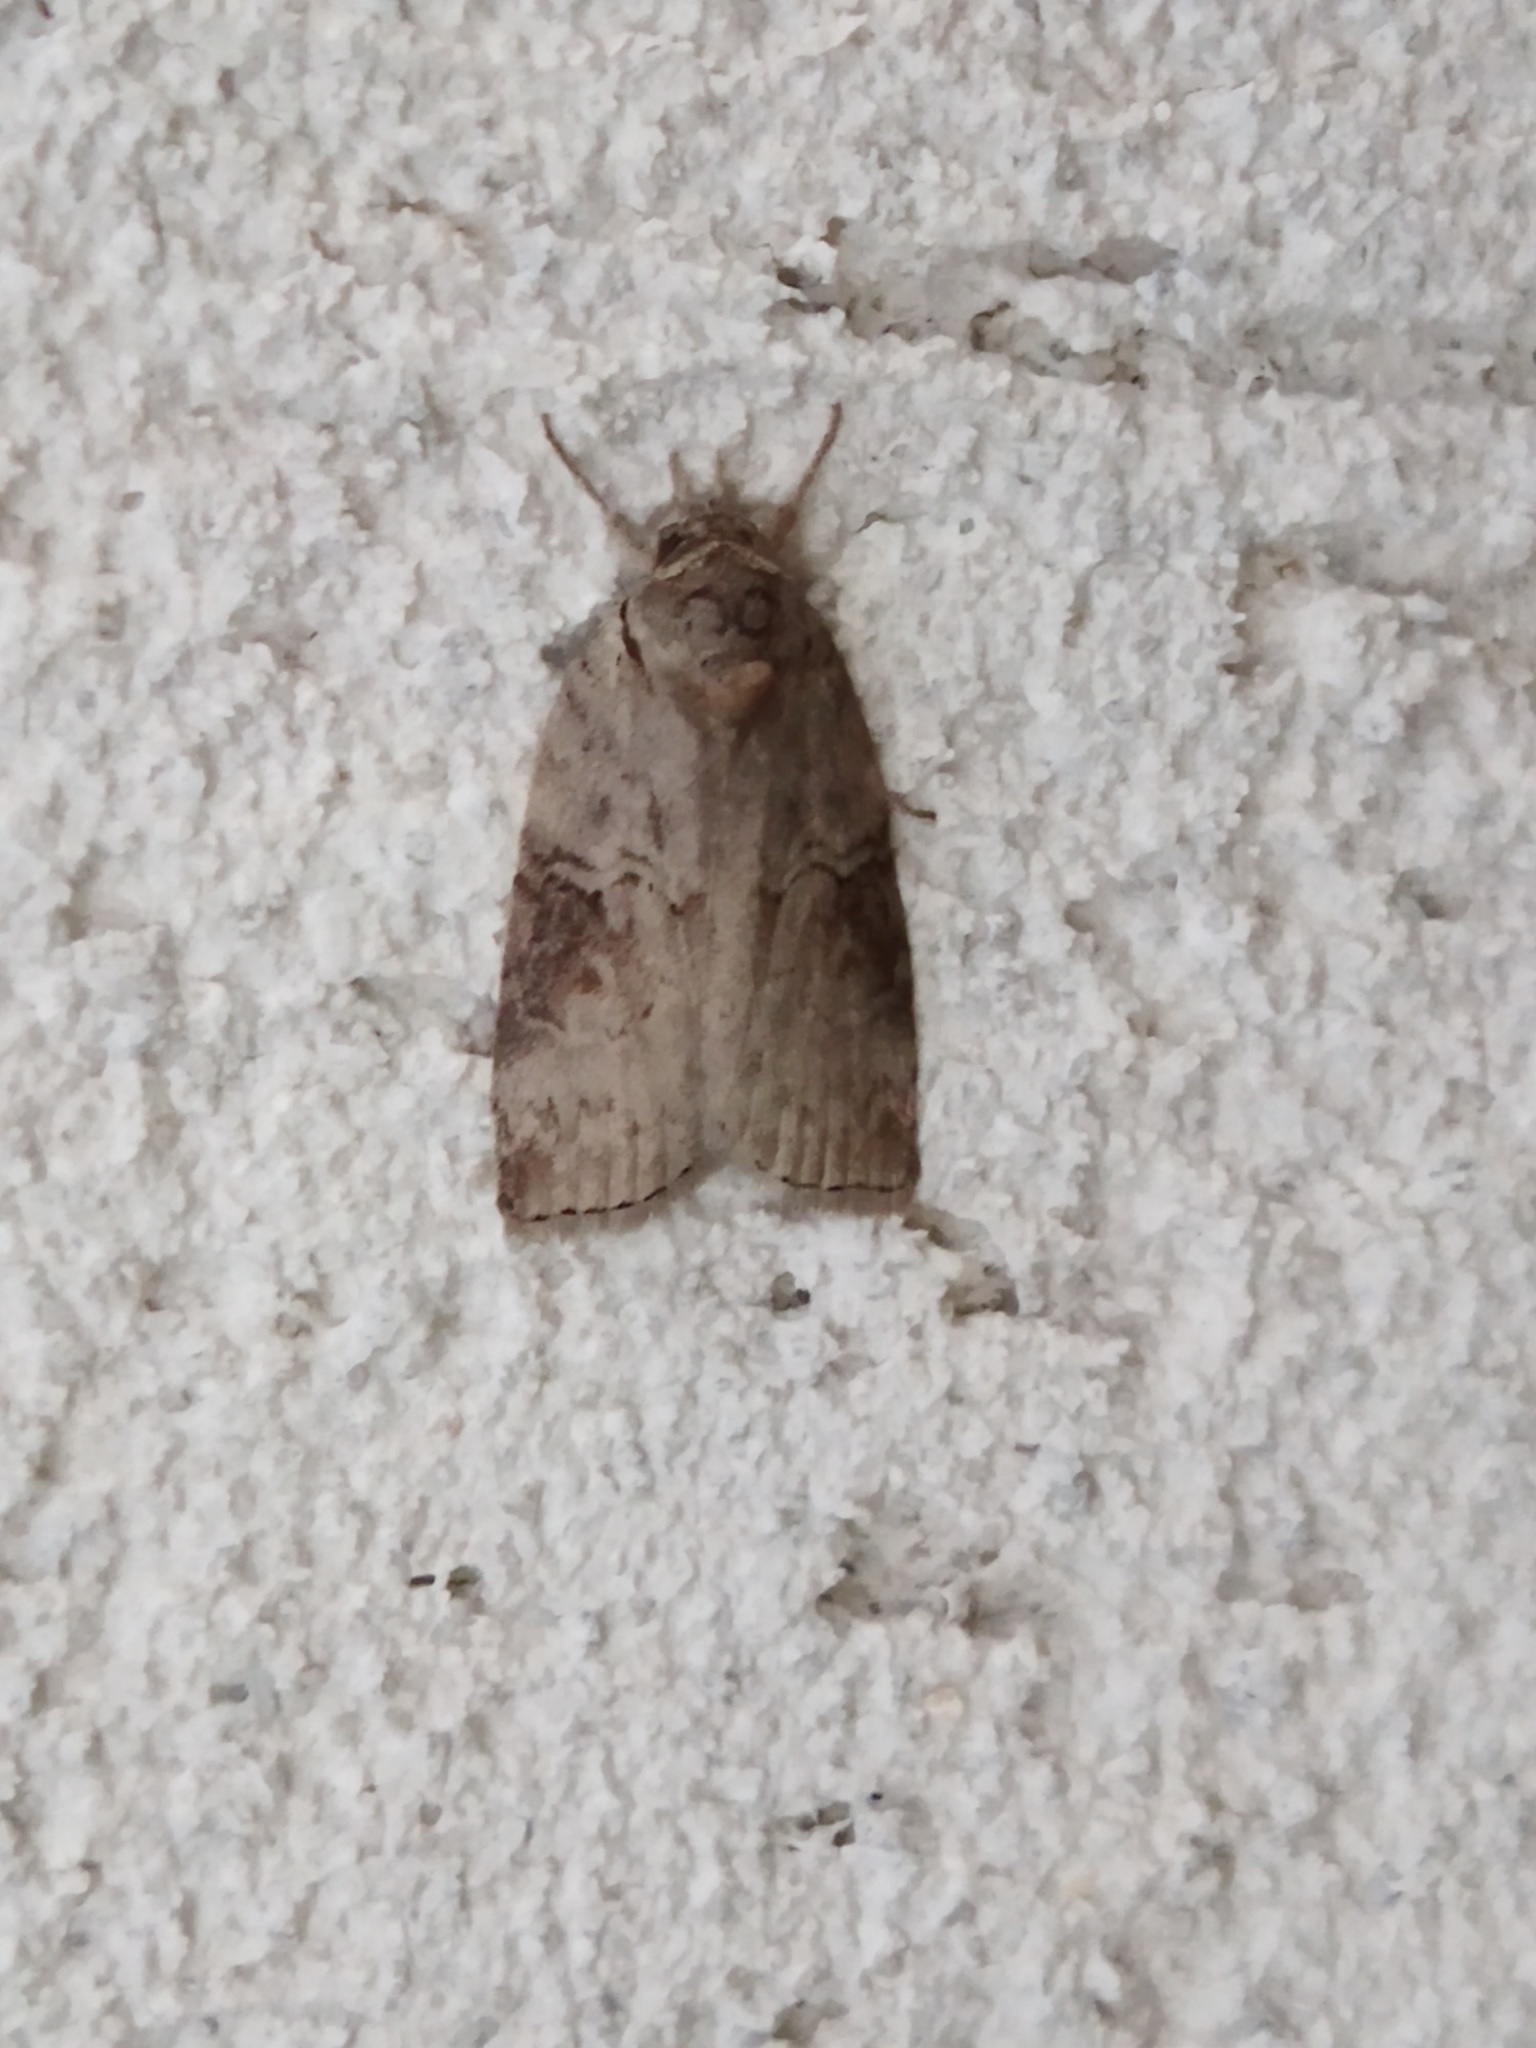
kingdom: Animalia
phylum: Arthropoda
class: Insecta
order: Lepidoptera
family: Nolidae
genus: Nycteola
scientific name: Nycteola asiatica
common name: Eastern nycteoline
